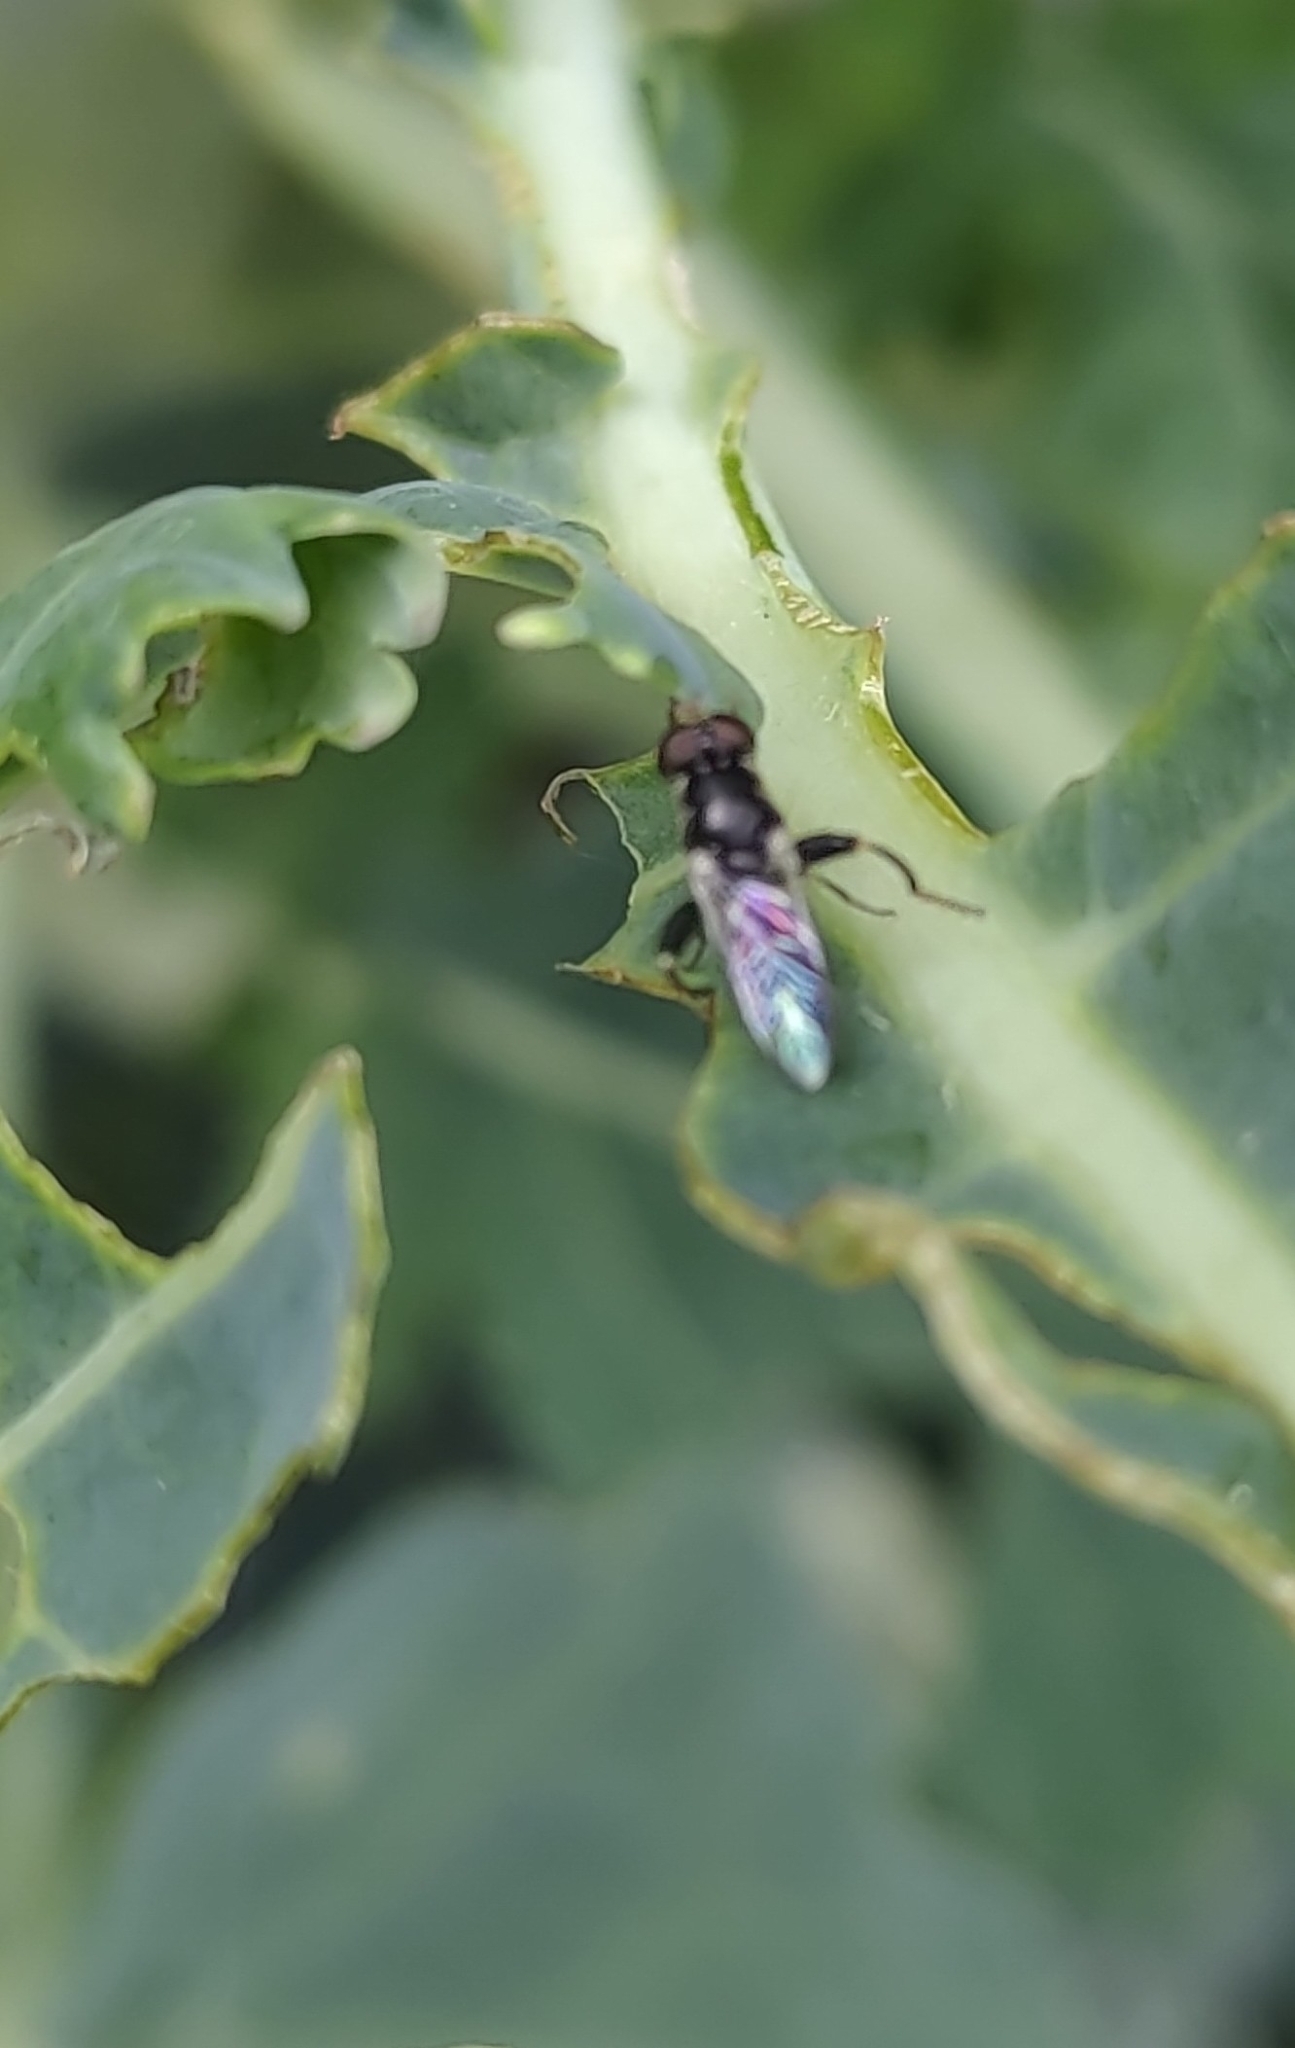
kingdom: Animalia
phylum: Arthropoda
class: Insecta
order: Diptera
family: Syrphidae
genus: Syritta
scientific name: Syritta pipiens
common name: Hover fly
